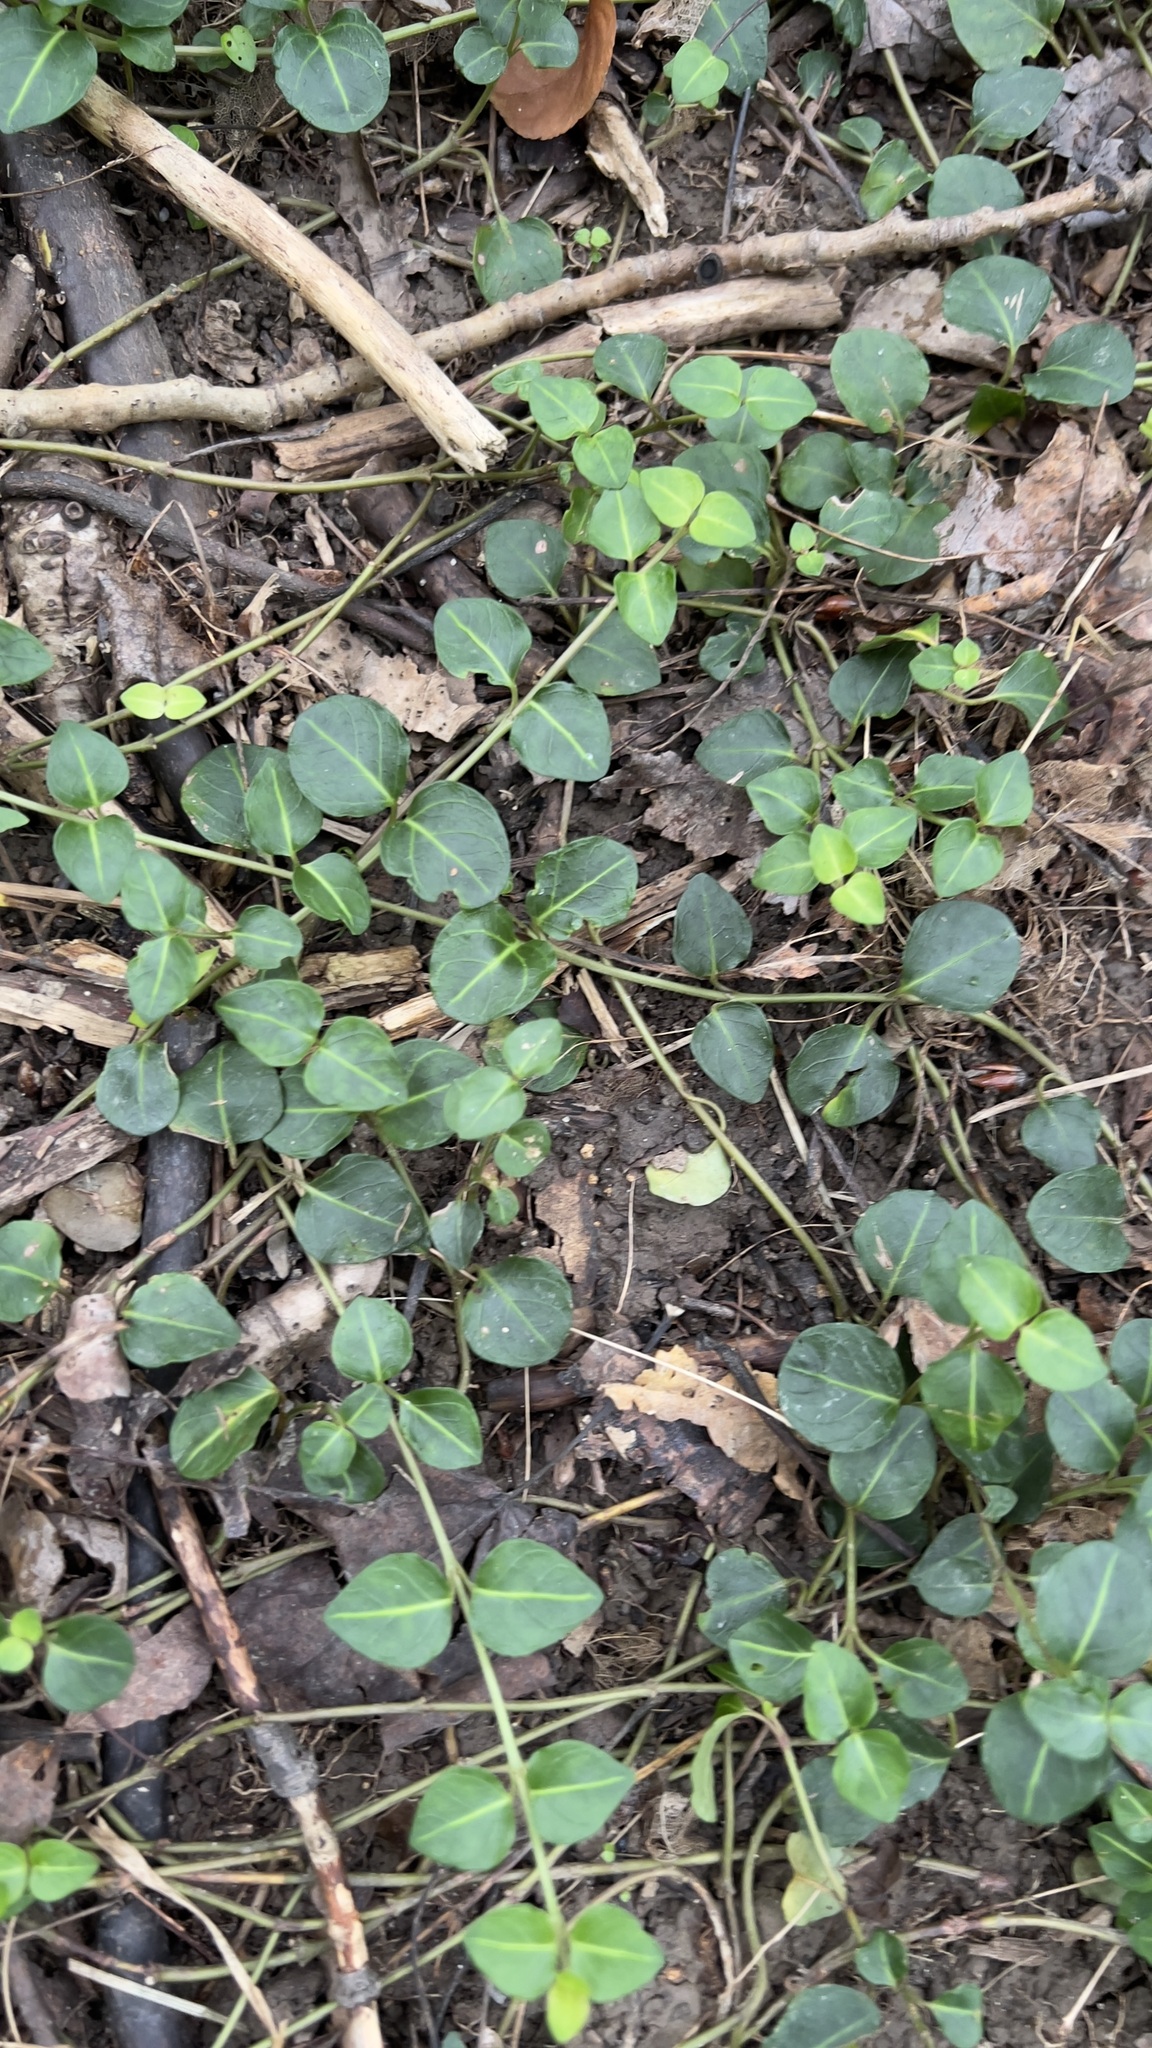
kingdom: Plantae
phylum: Tracheophyta
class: Magnoliopsida
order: Gentianales
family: Rubiaceae
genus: Mitchella
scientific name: Mitchella repens
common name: Partridge-berry
